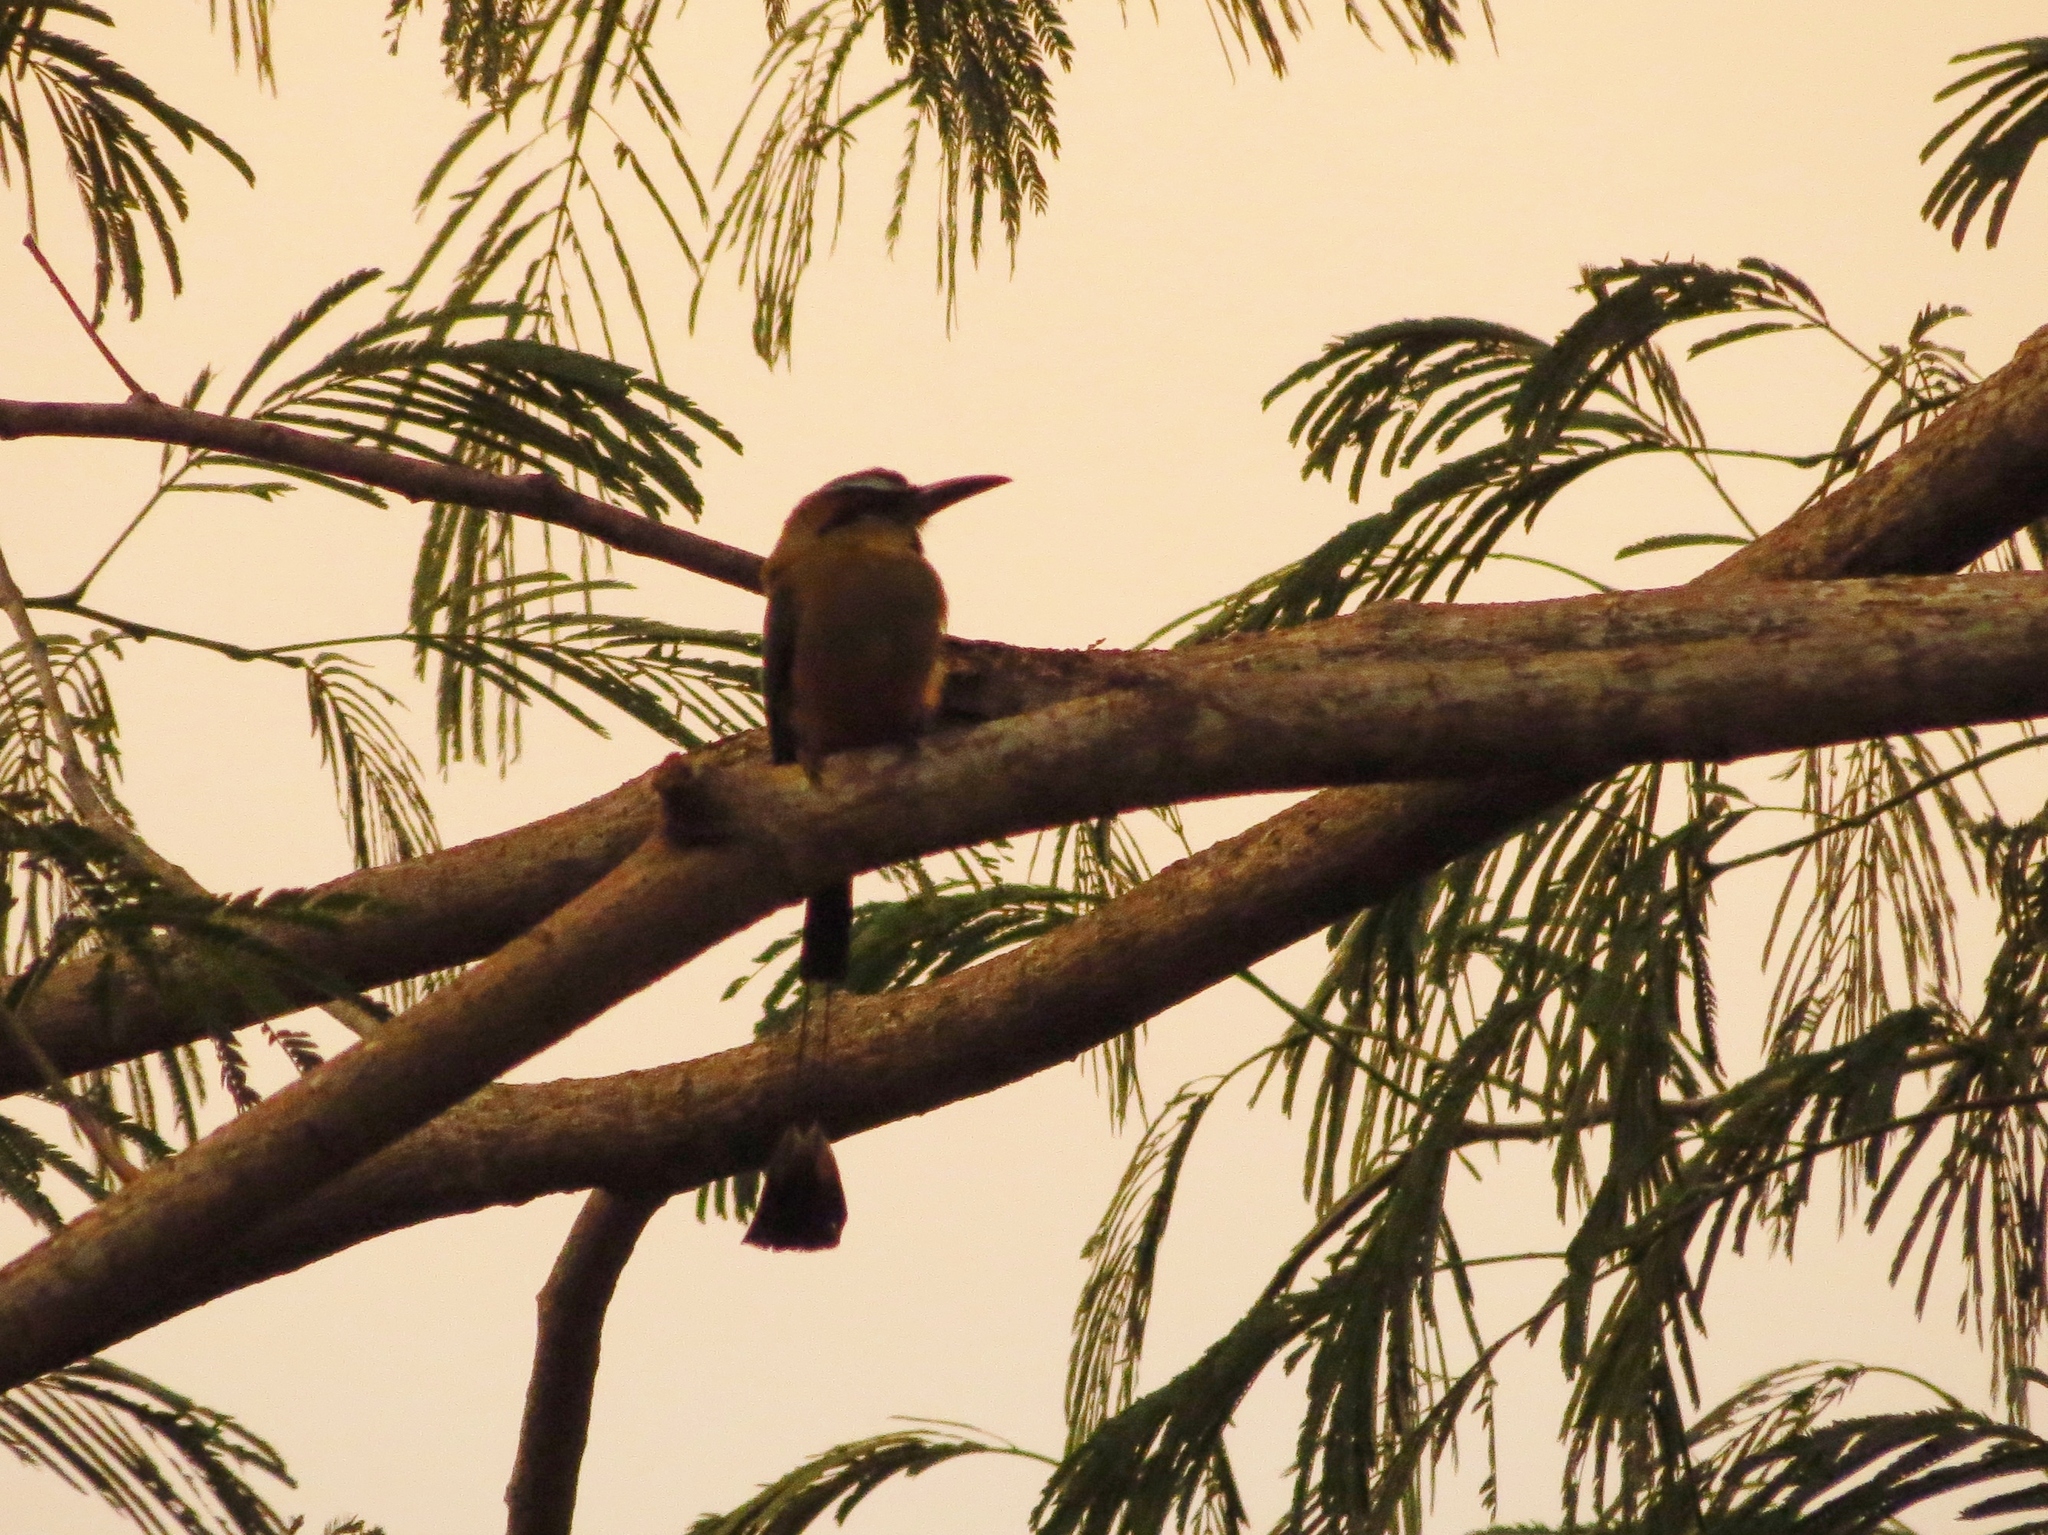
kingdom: Animalia
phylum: Chordata
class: Aves
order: Coraciiformes
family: Momotidae
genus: Eumomota
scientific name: Eumomota superciliosa
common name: Turquoise-browed motmot
